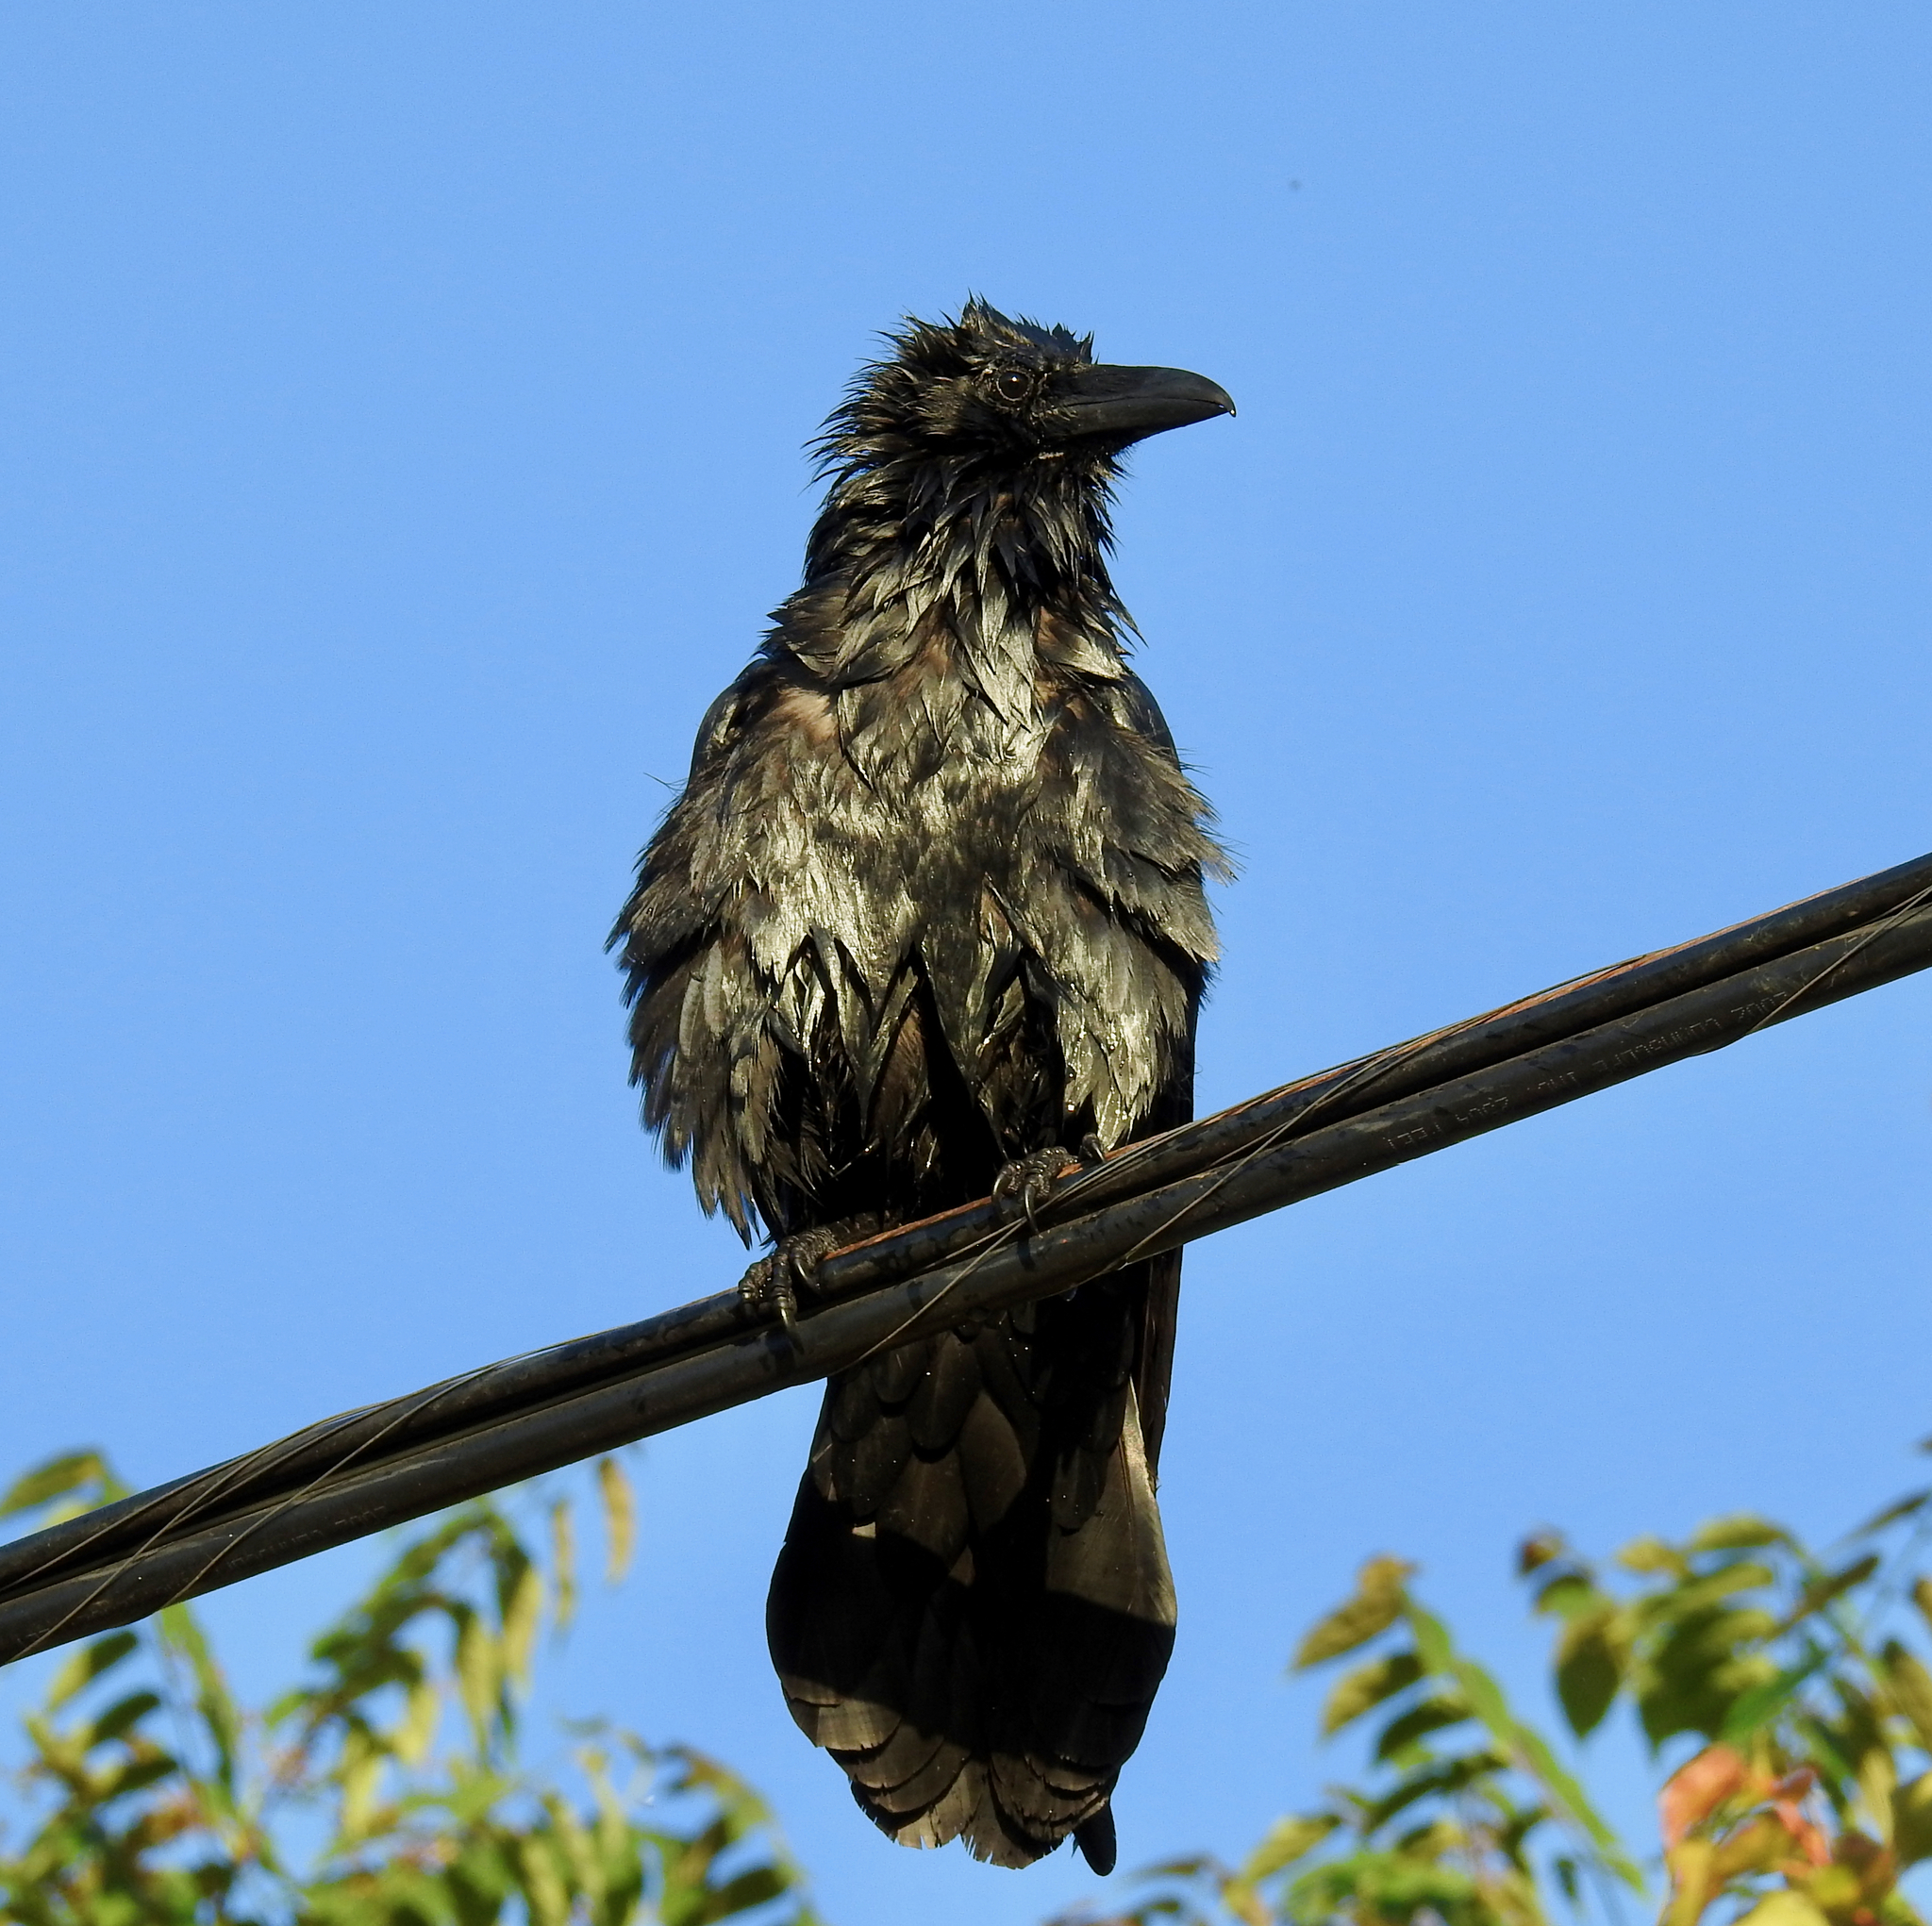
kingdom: Animalia
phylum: Chordata
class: Aves
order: Passeriformes
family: Corvidae
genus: Corvus
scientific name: Corvus corax
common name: Common raven
